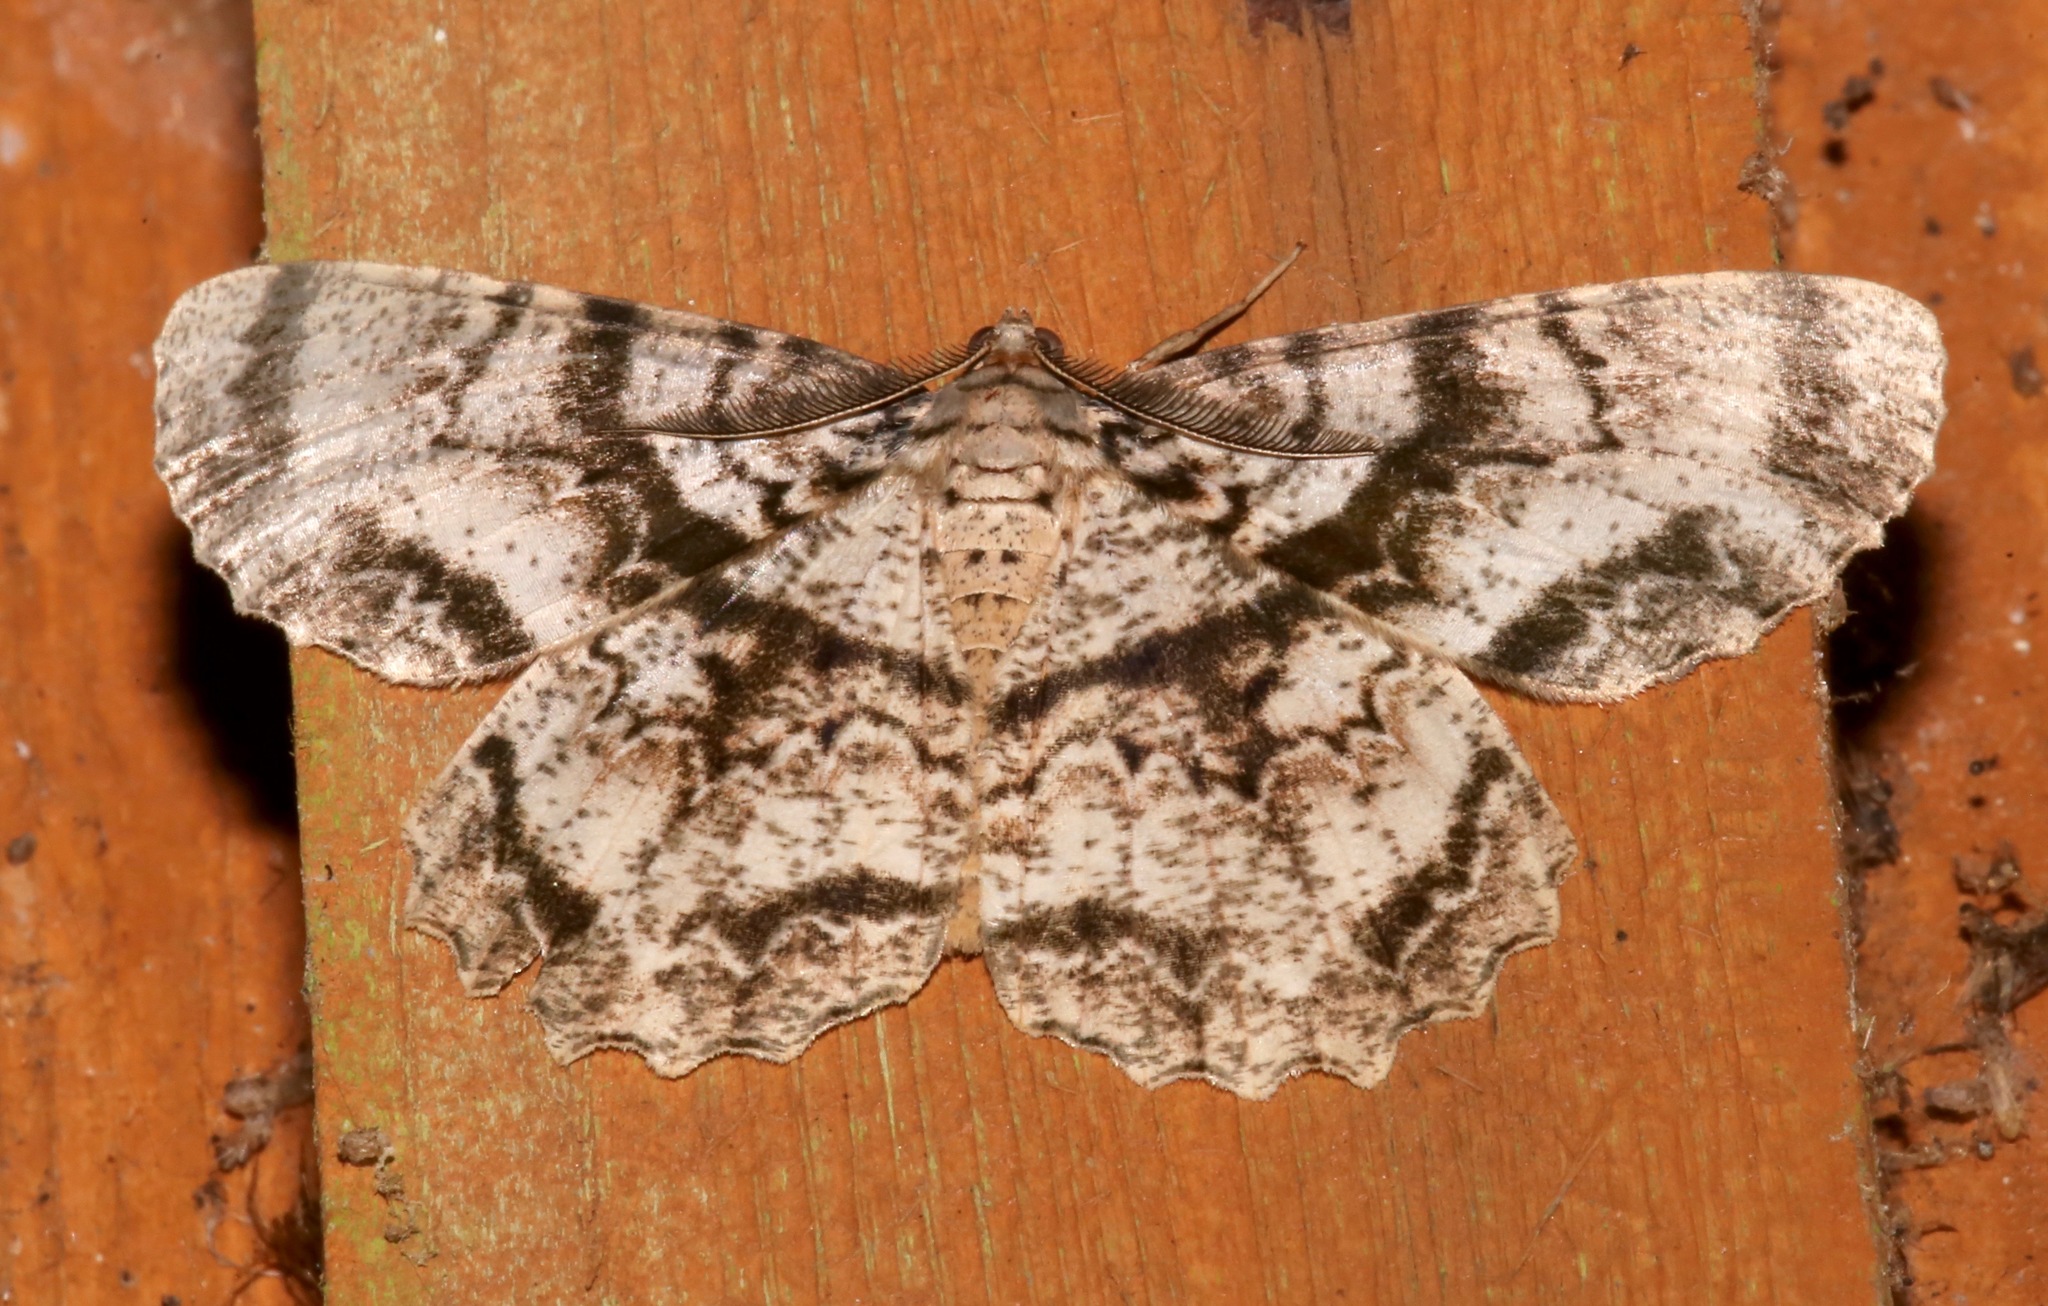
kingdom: Animalia
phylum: Arthropoda
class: Insecta
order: Lepidoptera
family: Geometridae
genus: Epimecis
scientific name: Epimecis hortaria
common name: Tulip-tree beauty
